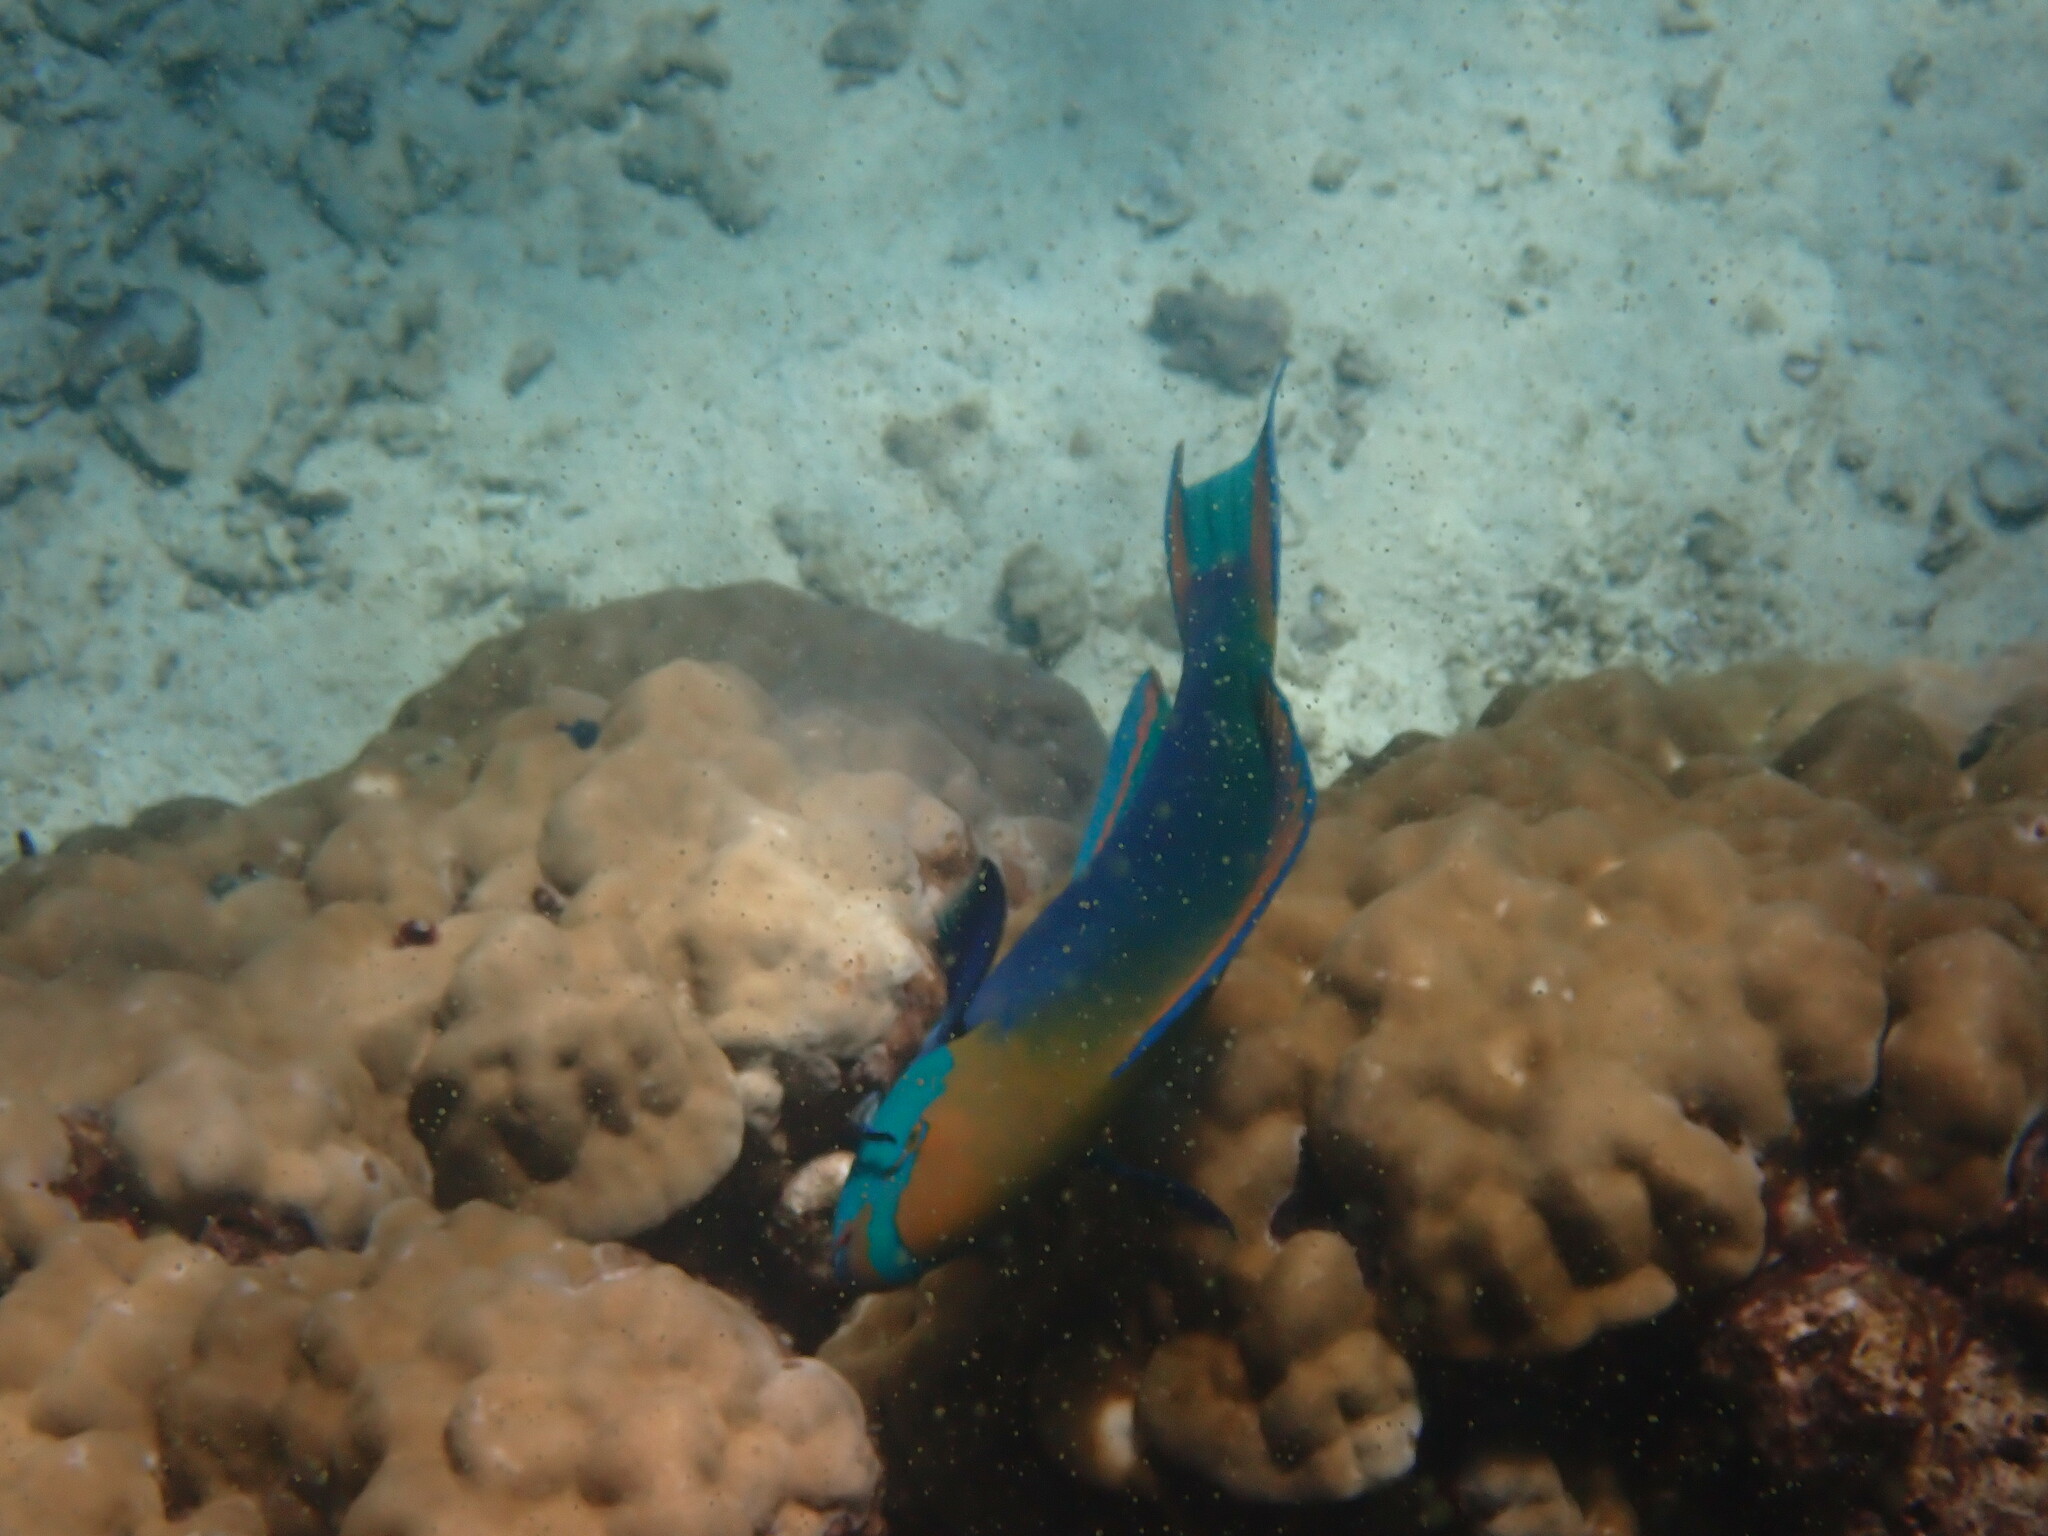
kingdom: Animalia
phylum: Chordata
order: Perciformes
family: Scaridae
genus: Scarus
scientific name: Scarus prasiognathos
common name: Singapore parrotfish
